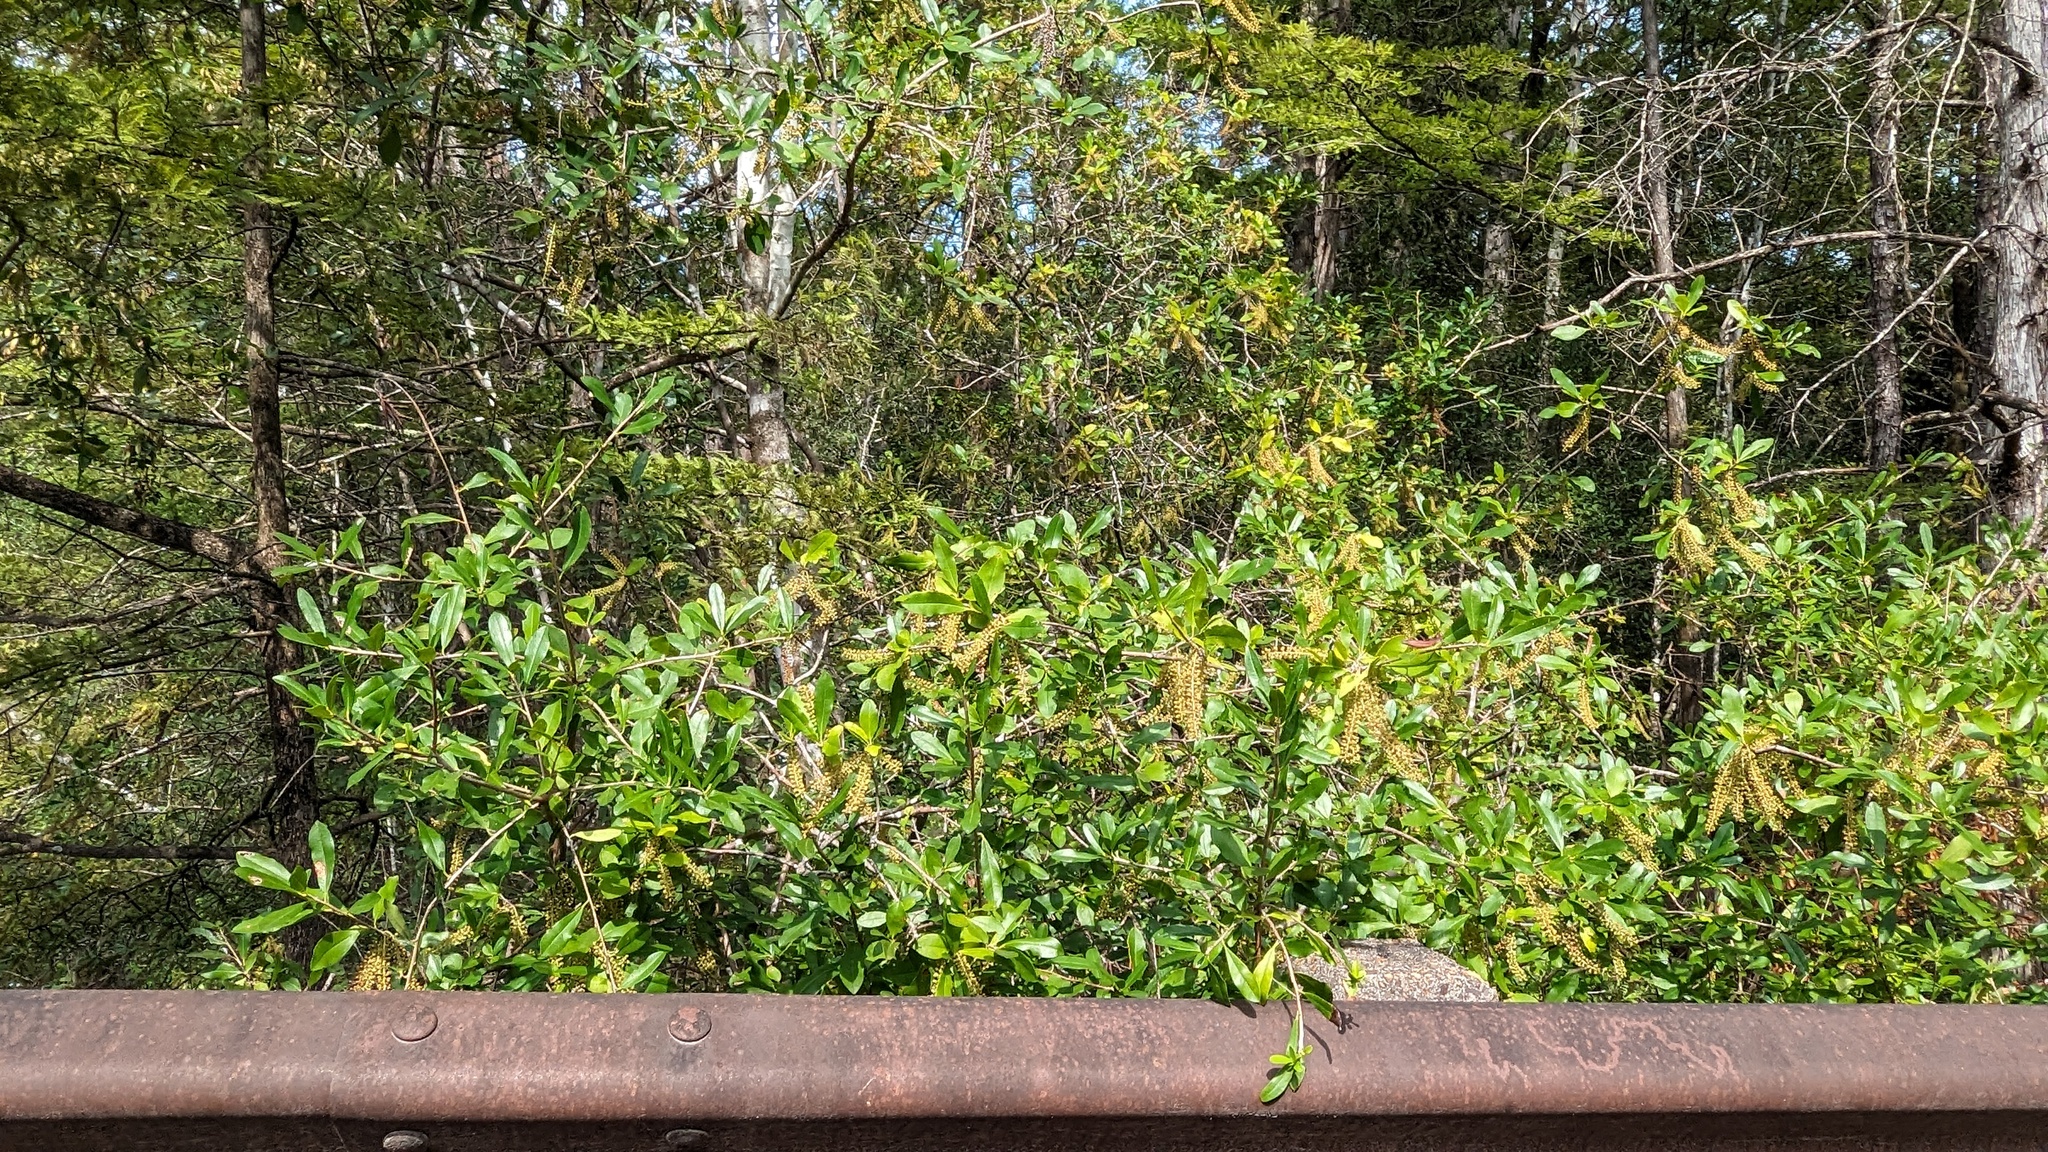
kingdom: Plantae
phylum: Tracheophyta
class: Magnoliopsida
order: Ericales
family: Cyrillaceae
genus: Cyrilla
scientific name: Cyrilla racemiflora
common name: Black titi
